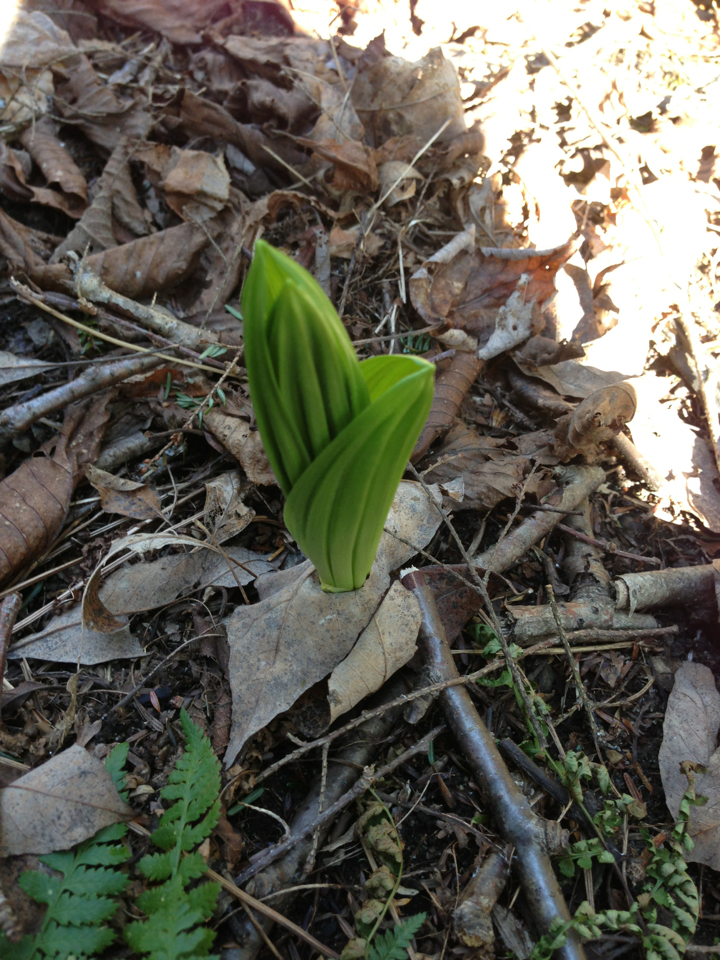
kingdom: Plantae
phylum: Tracheophyta
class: Liliopsida
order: Liliales
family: Melanthiaceae
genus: Veratrum
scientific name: Veratrum viride
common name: American false hellebore
